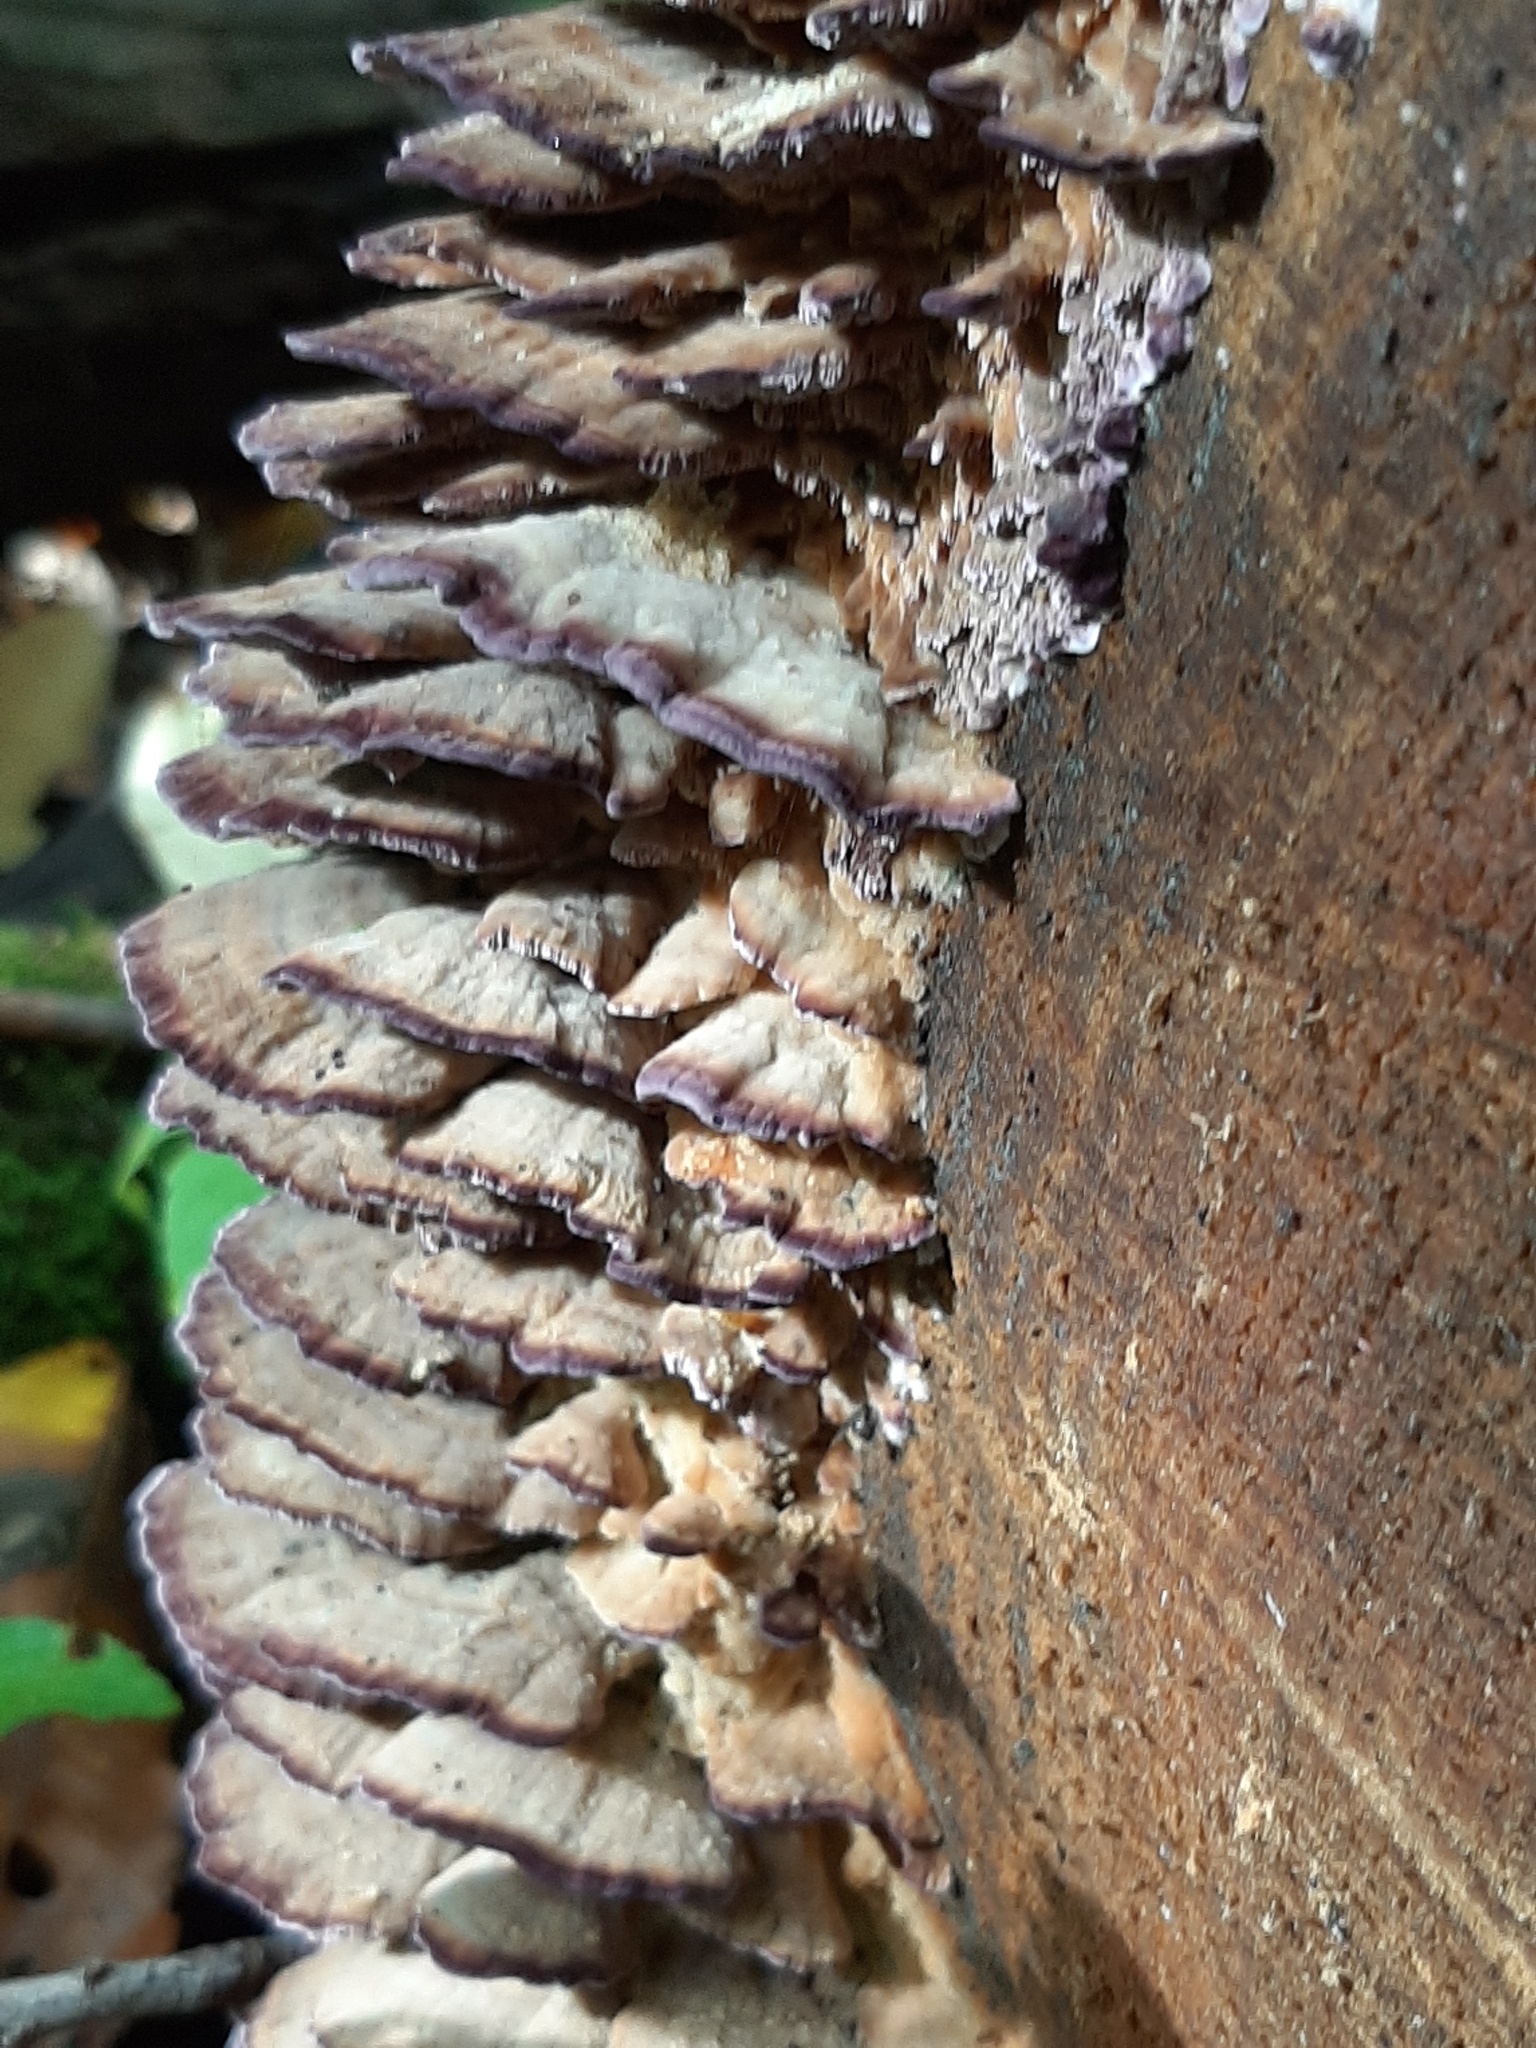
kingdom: Fungi
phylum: Basidiomycota
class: Agaricomycetes
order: Hymenochaetales
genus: Trichaptum
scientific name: Trichaptum biforme
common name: Violet-toothed polypore
